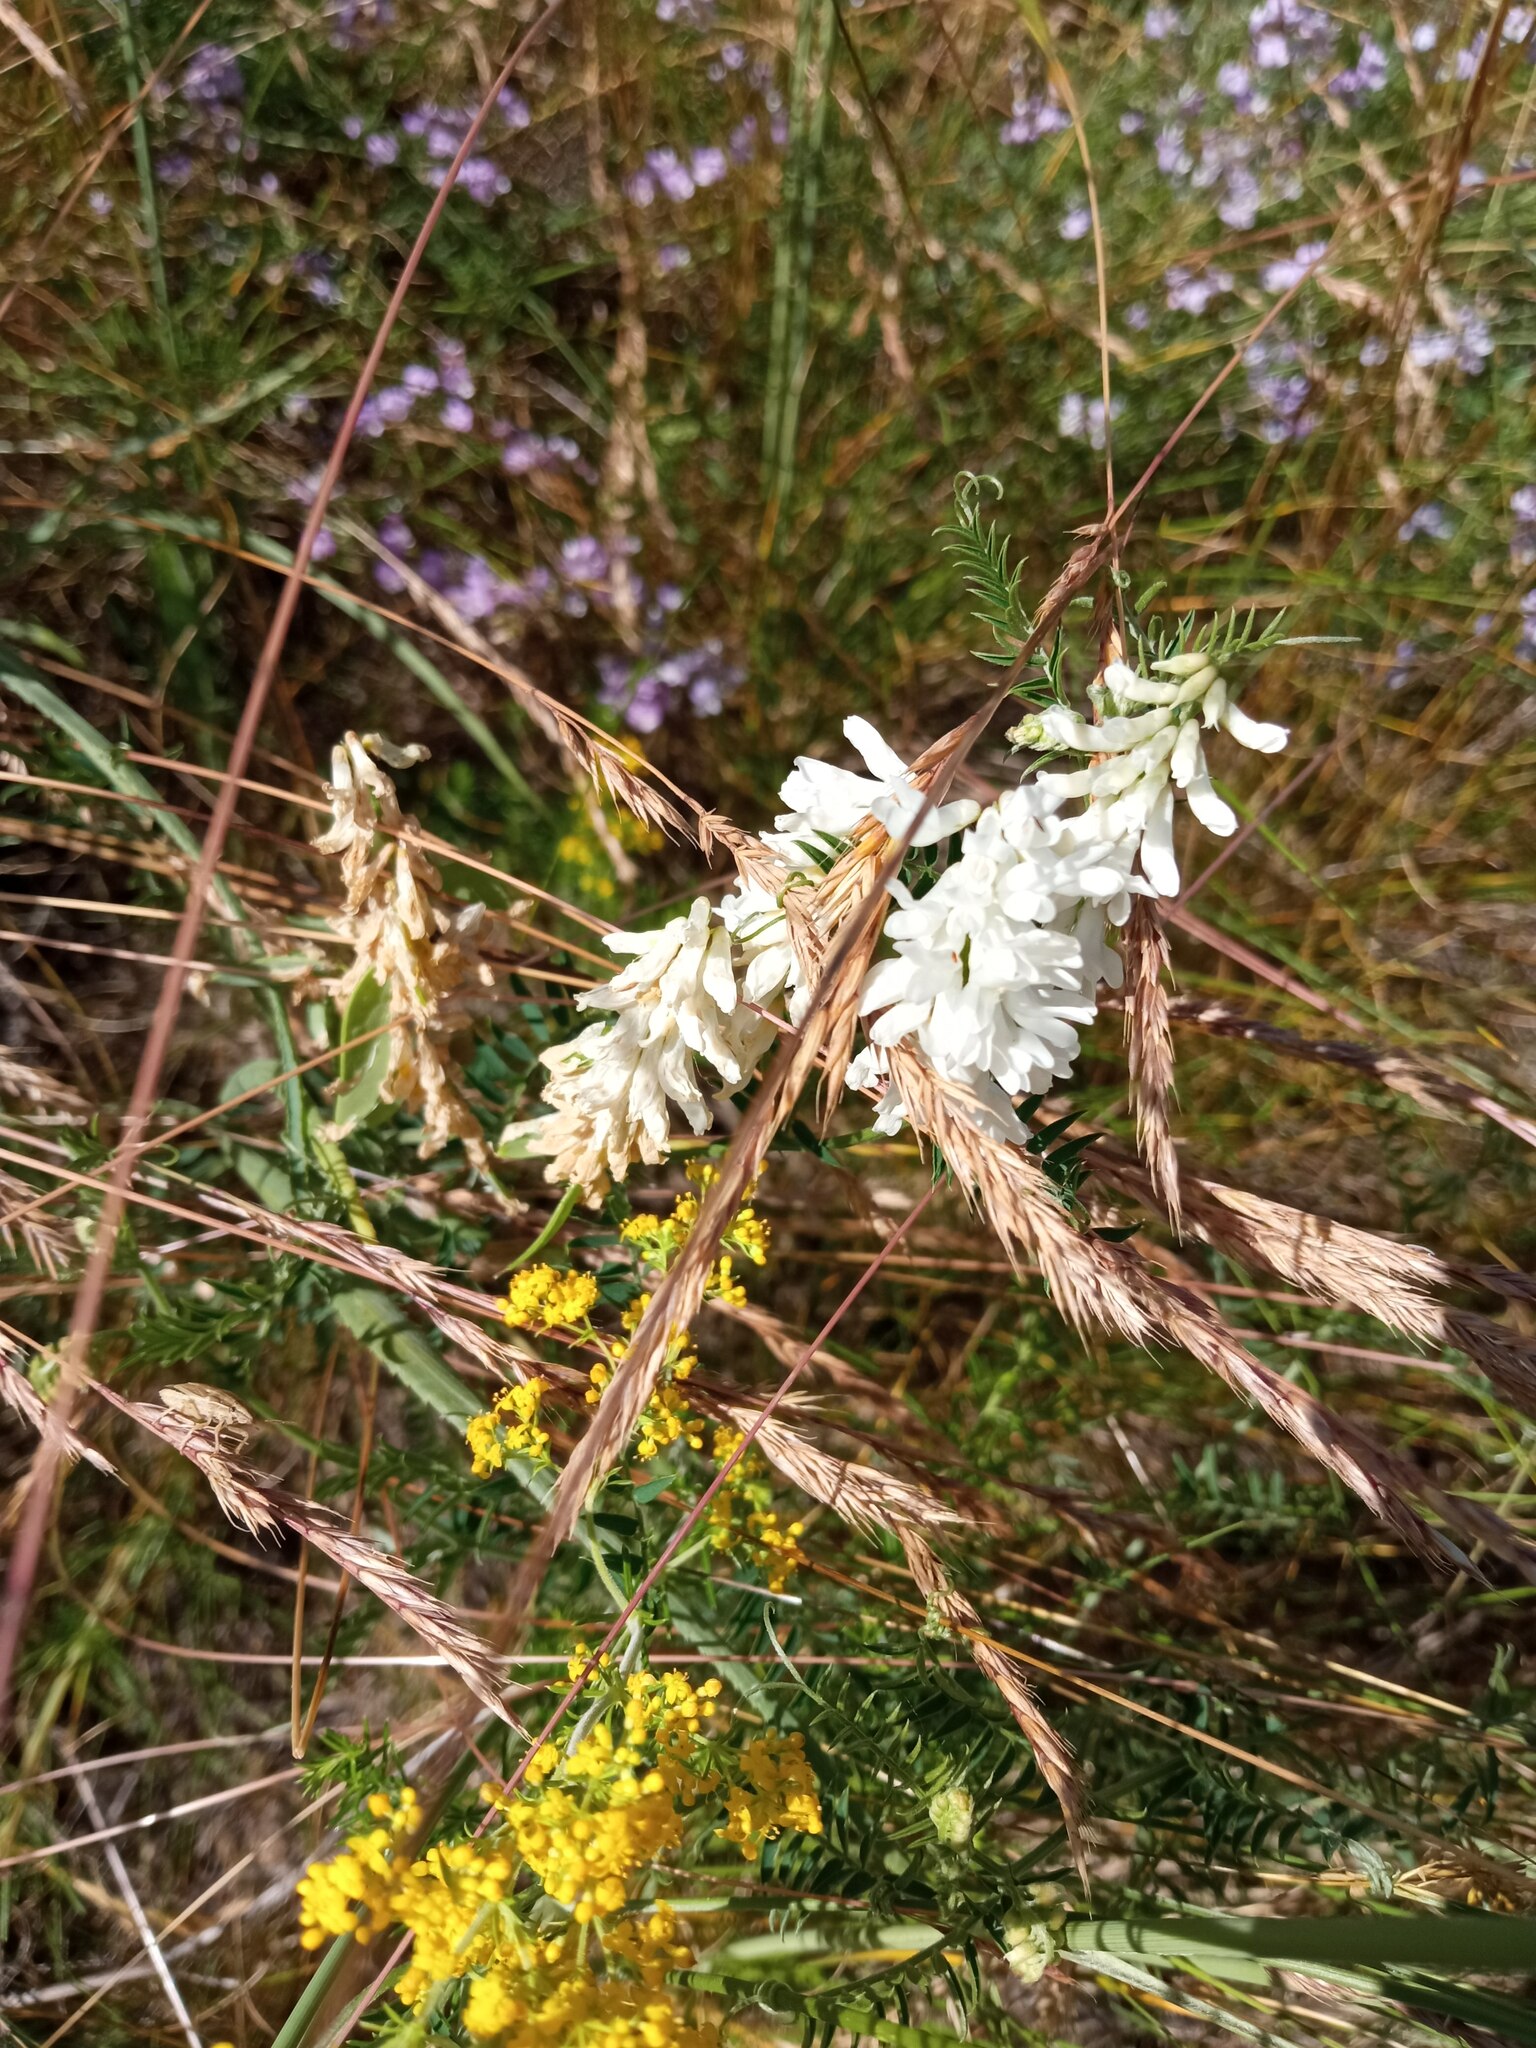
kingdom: Plantae
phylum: Tracheophyta
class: Magnoliopsida
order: Fabales
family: Fabaceae
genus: Vicia
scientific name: Vicia cracca
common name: Bird vetch
